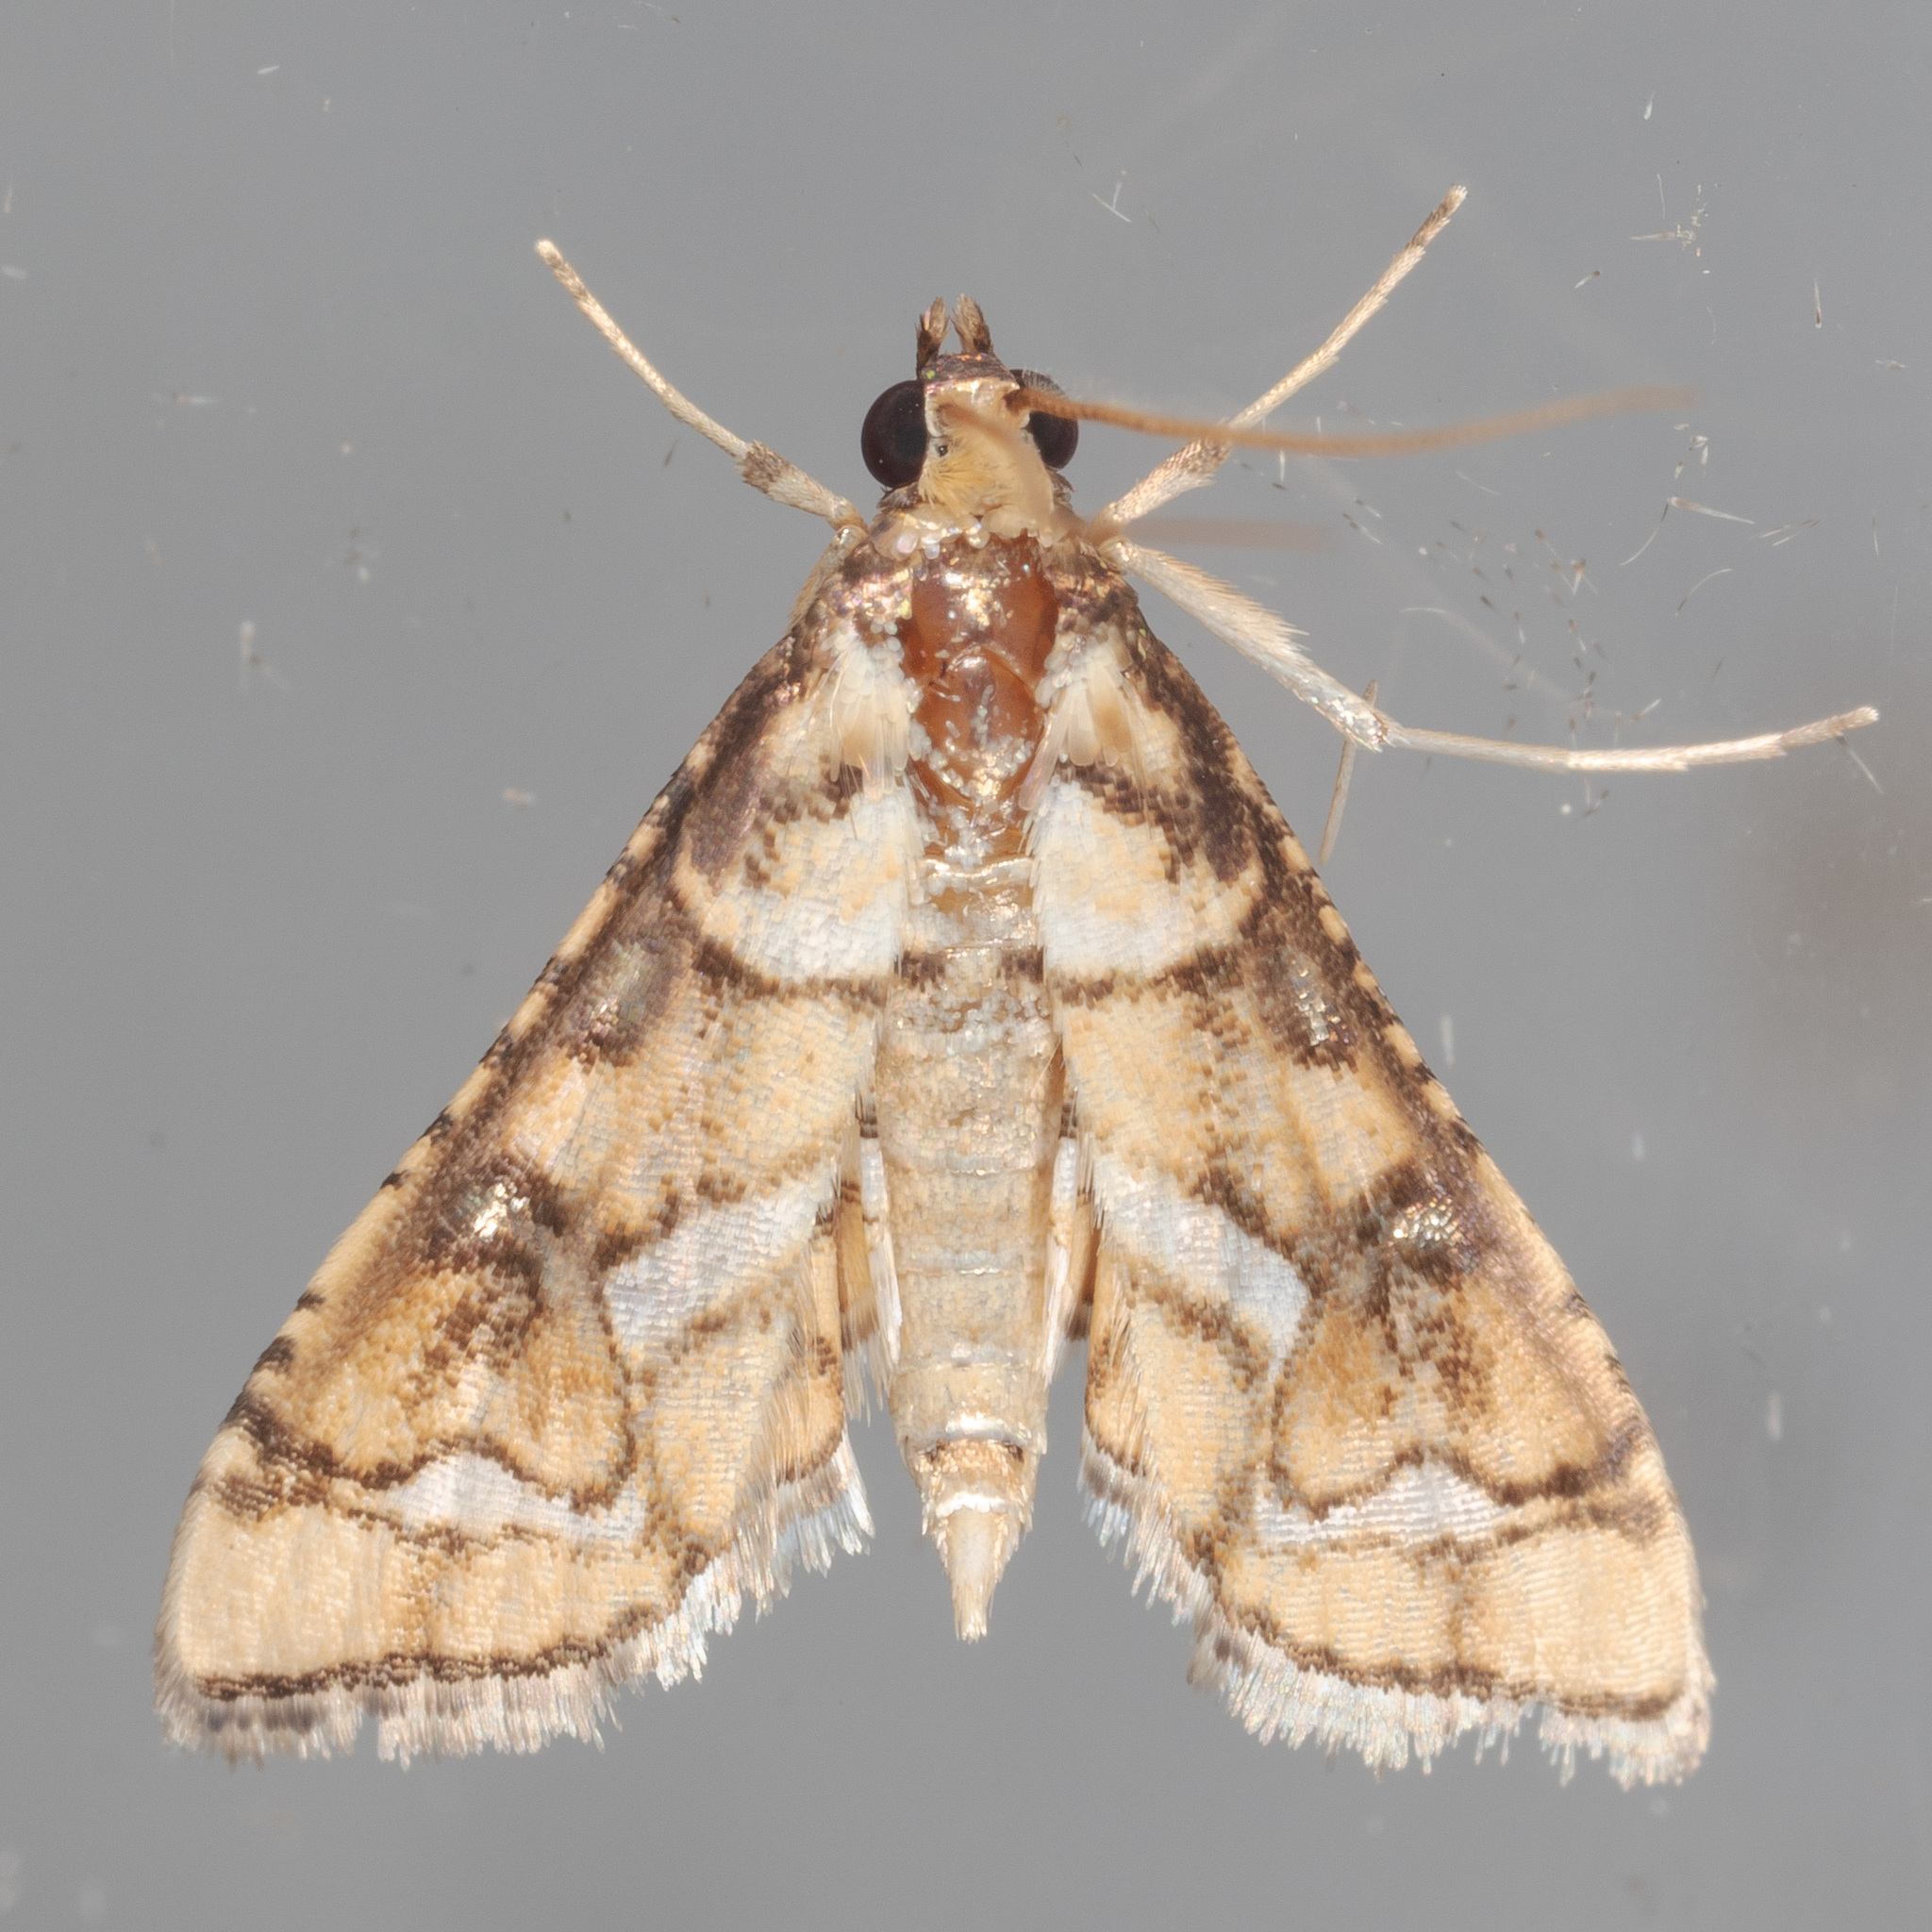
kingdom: Animalia
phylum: Arthropoda
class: Insecta
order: Lepidoptera
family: Crambidae
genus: Hileithia
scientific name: Hileithia magualis
